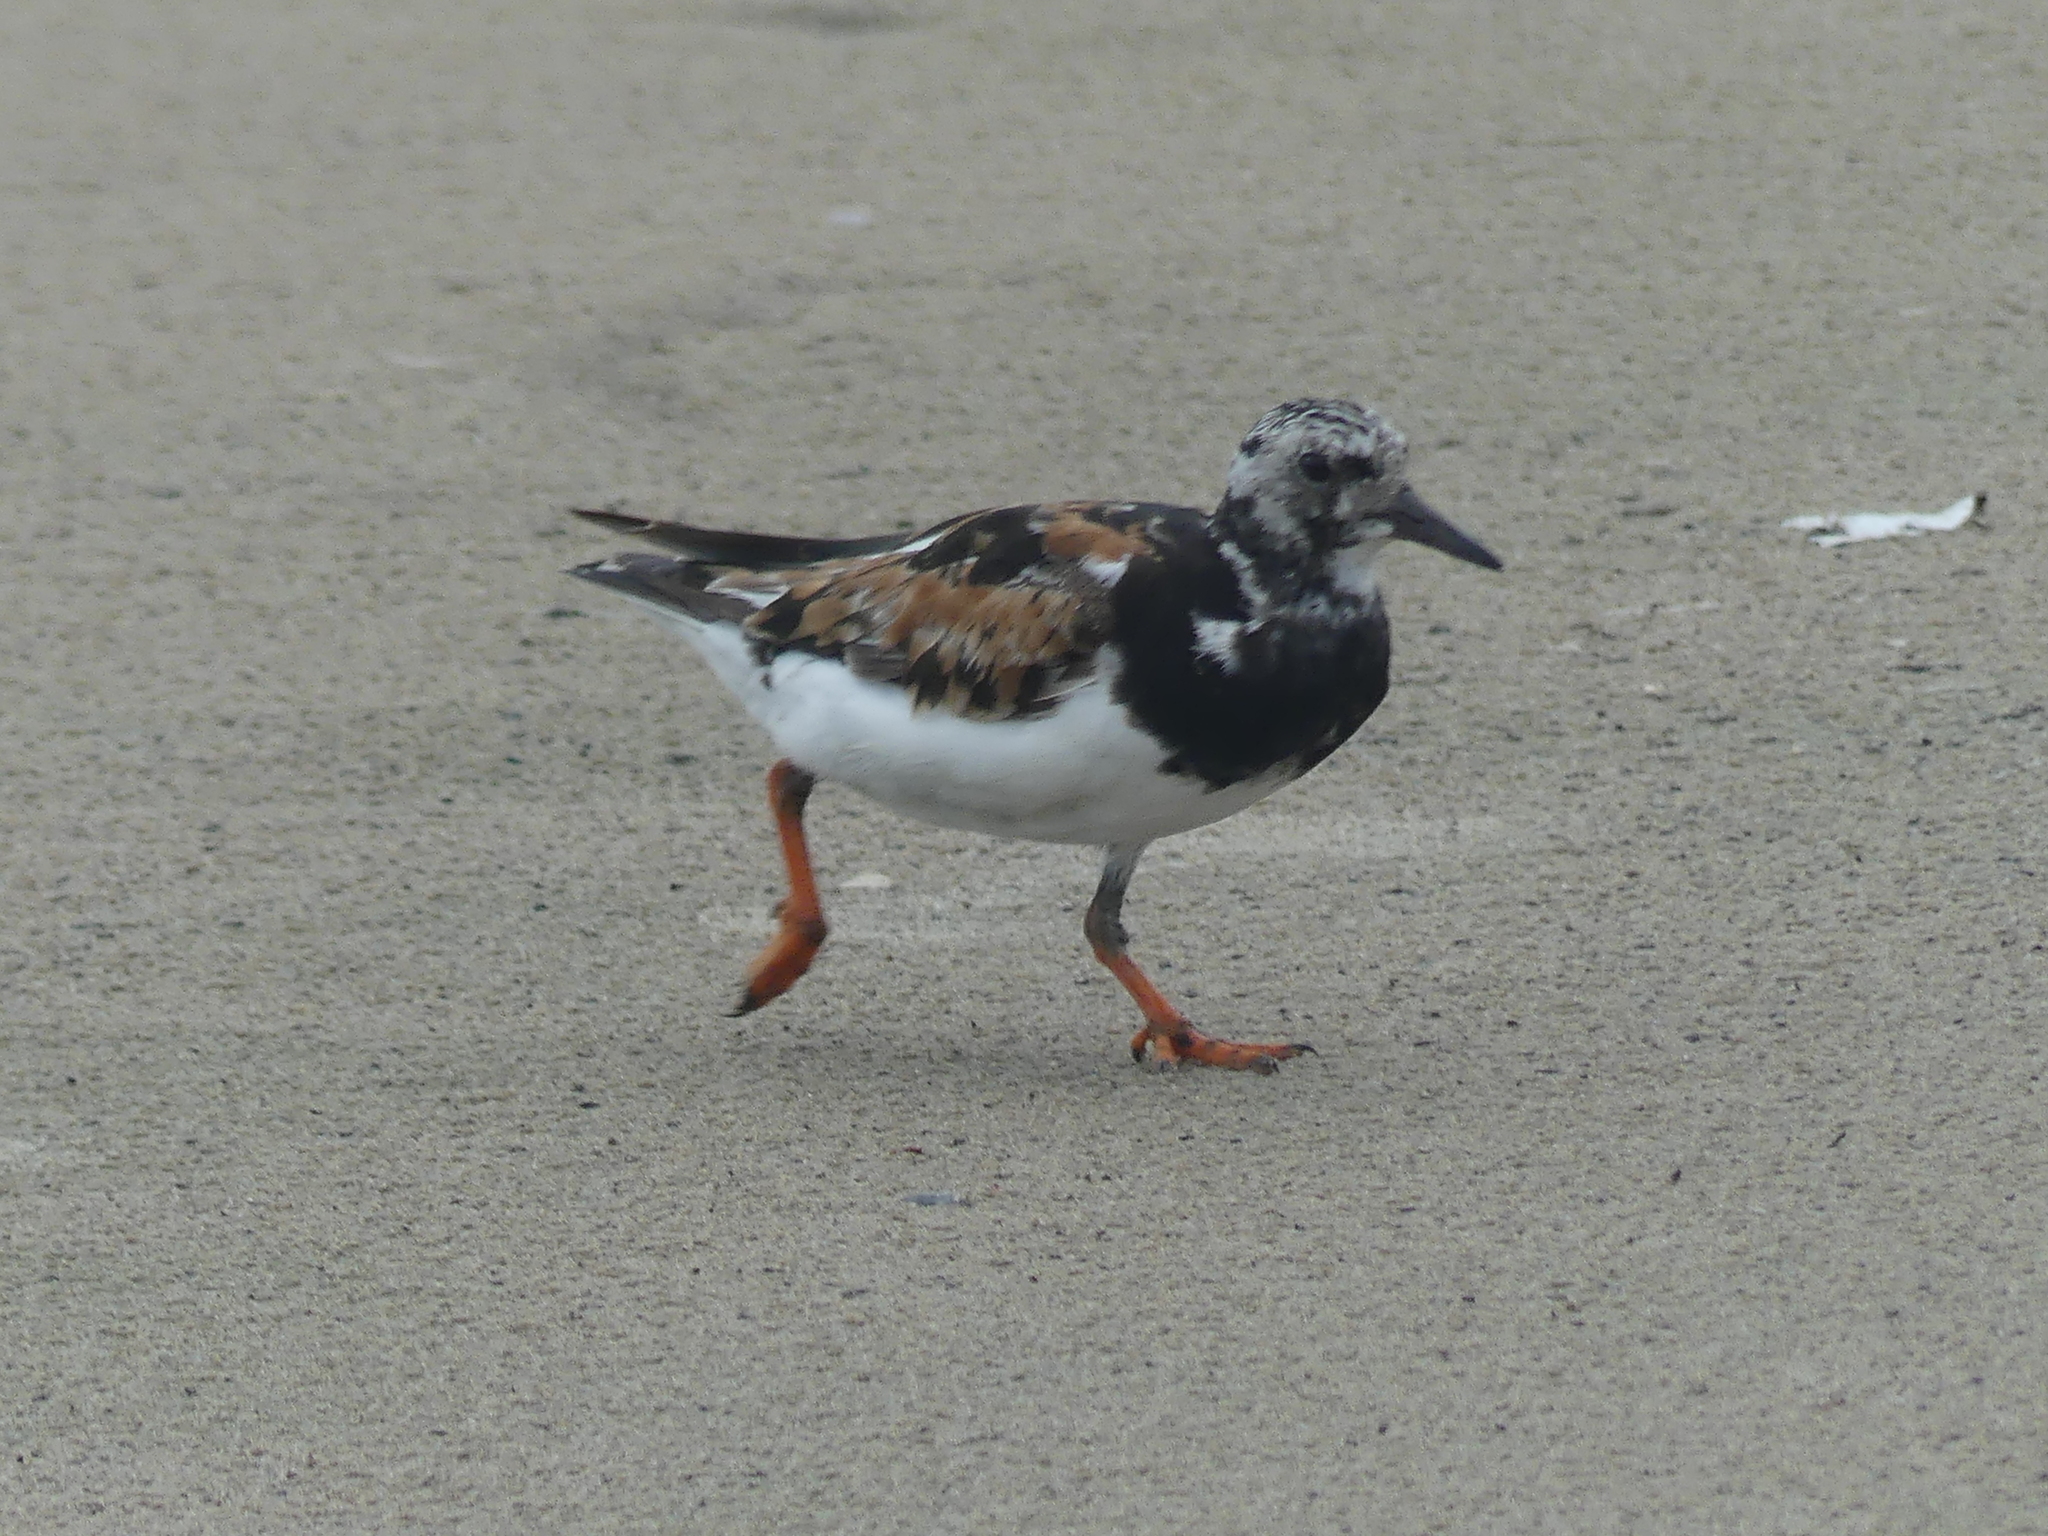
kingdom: Animalia
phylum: Chordata
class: Aves
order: Charadriiformes
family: Scolopacidae
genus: Arenaria
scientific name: Arenaria interpres
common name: Ruddy turnstone
